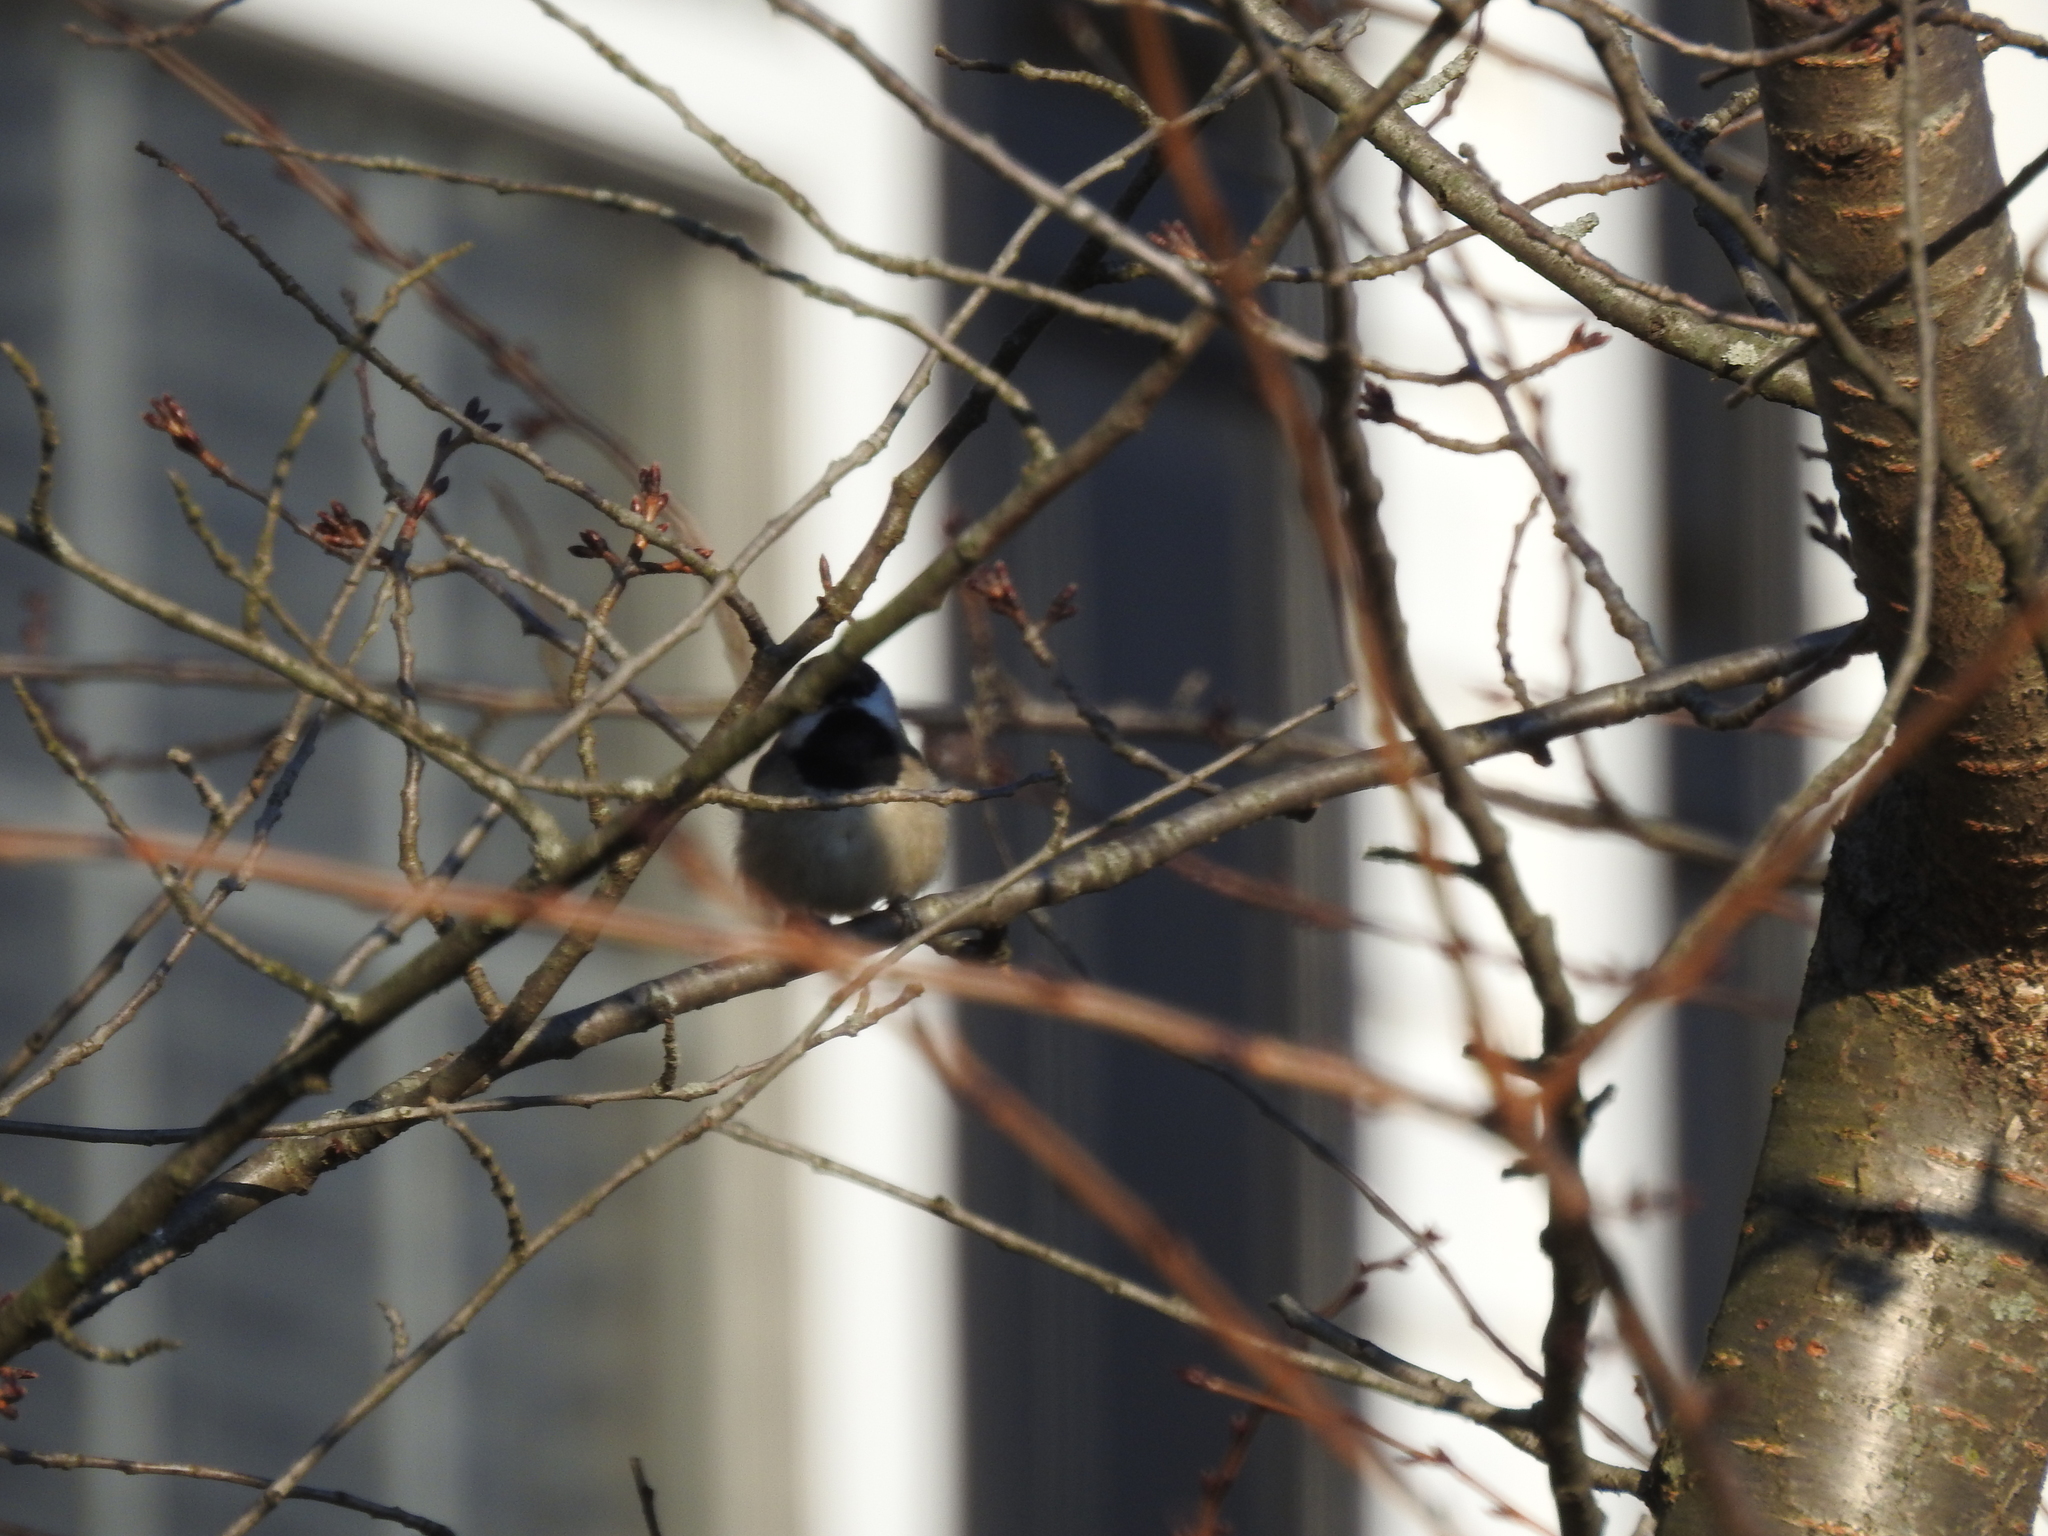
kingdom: Animalia
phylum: Chordata
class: Aves
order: Passeriformes
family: Paridae
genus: Poecile
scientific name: Poecile carolinensis
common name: Carolina chickadee
